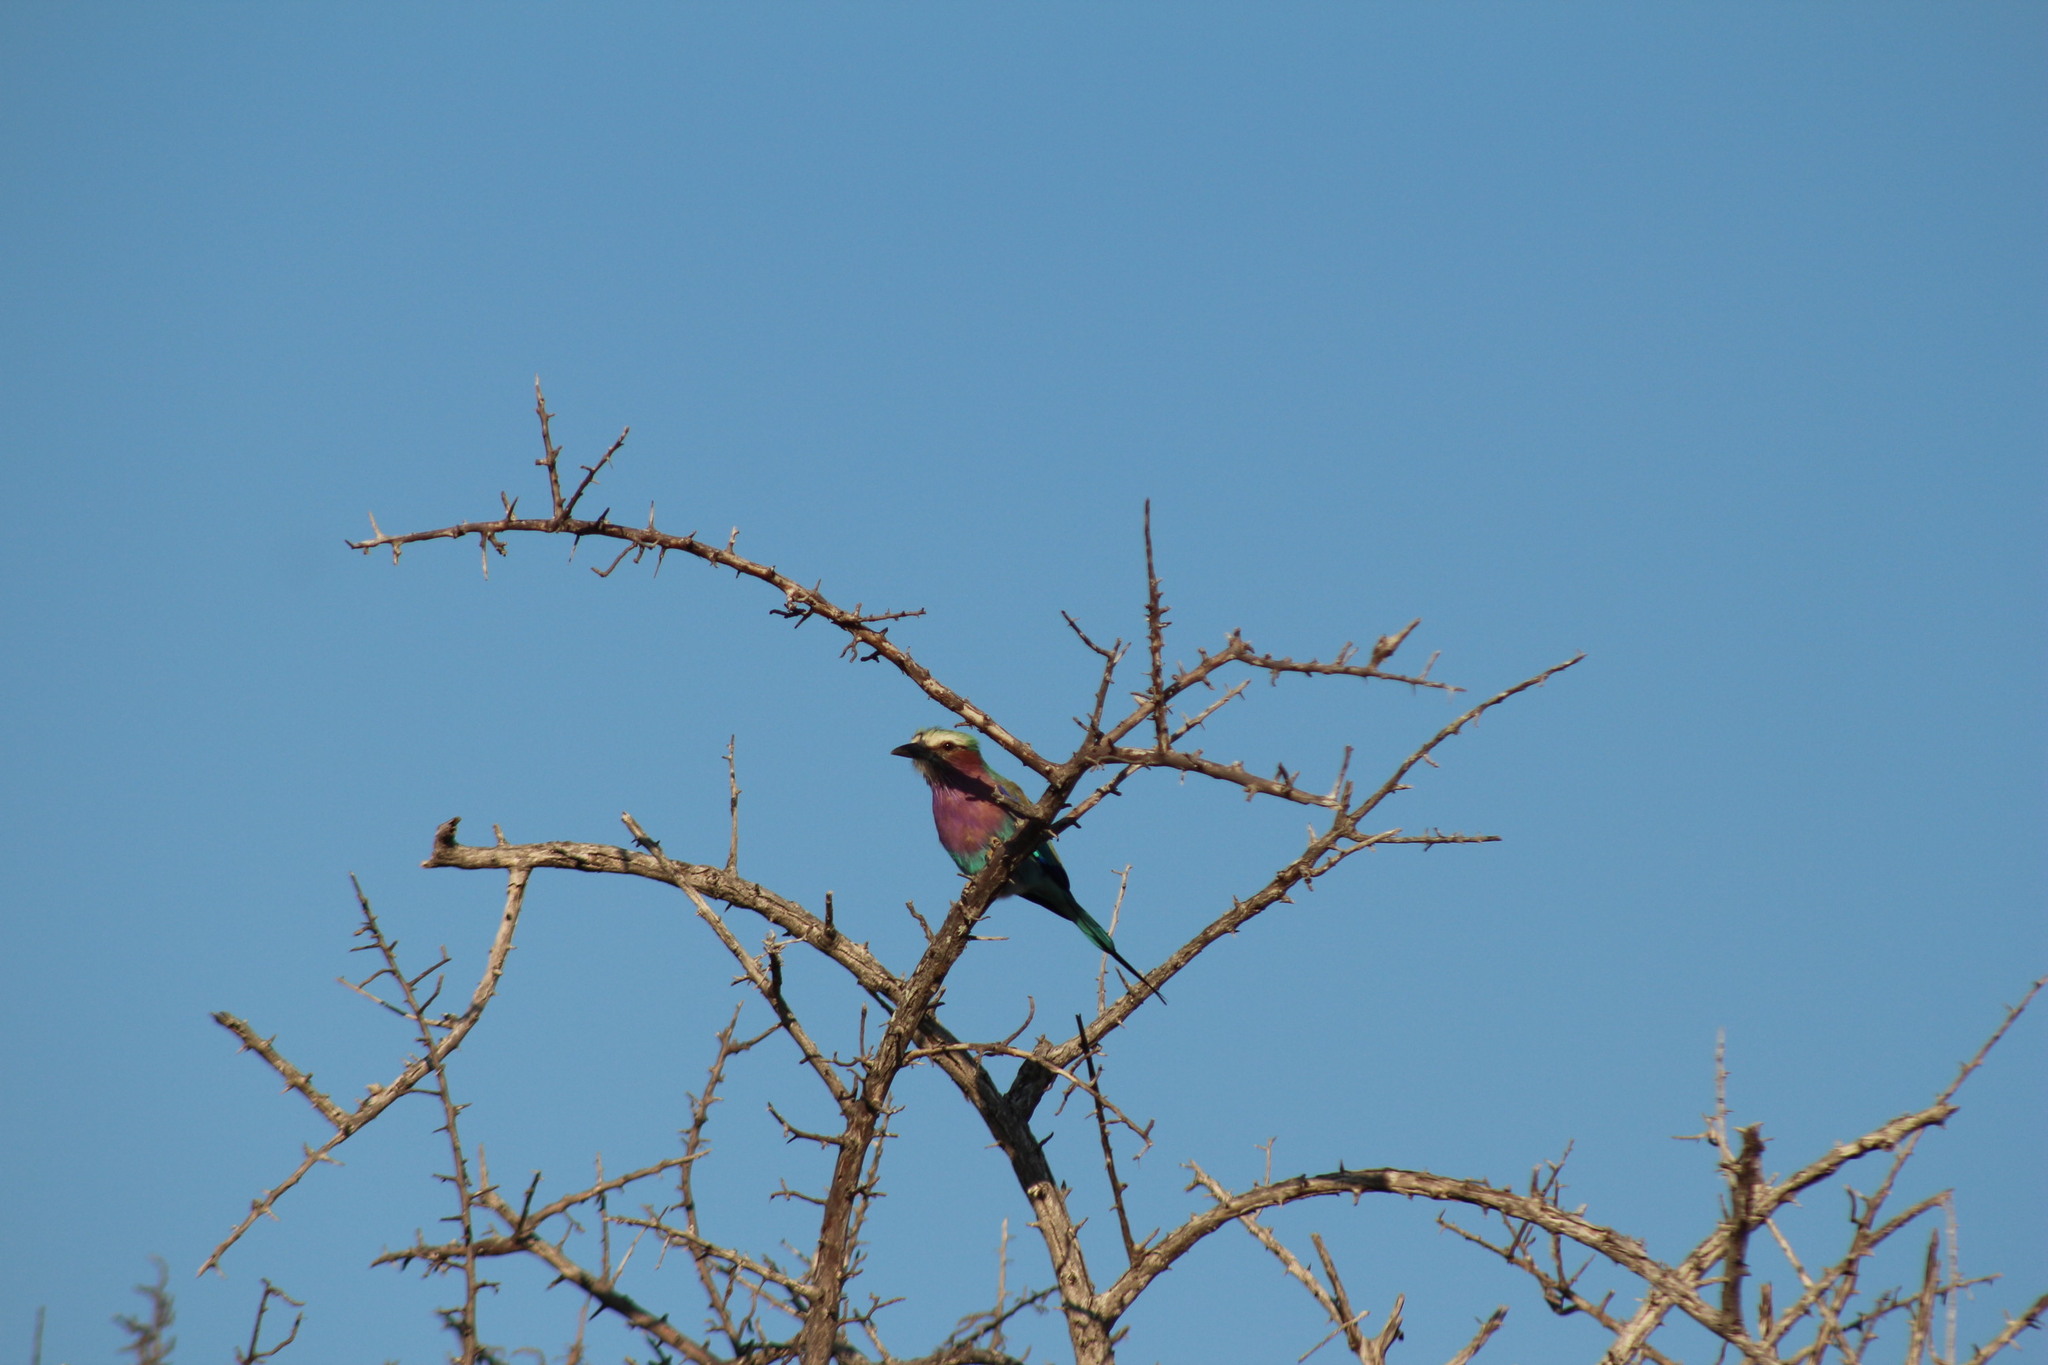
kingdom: Animalia
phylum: Chordata
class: Aves
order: Coraciiformes
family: Coraciidae
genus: Coracias
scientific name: Coracias caudatus
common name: Lilac-breasted roller
